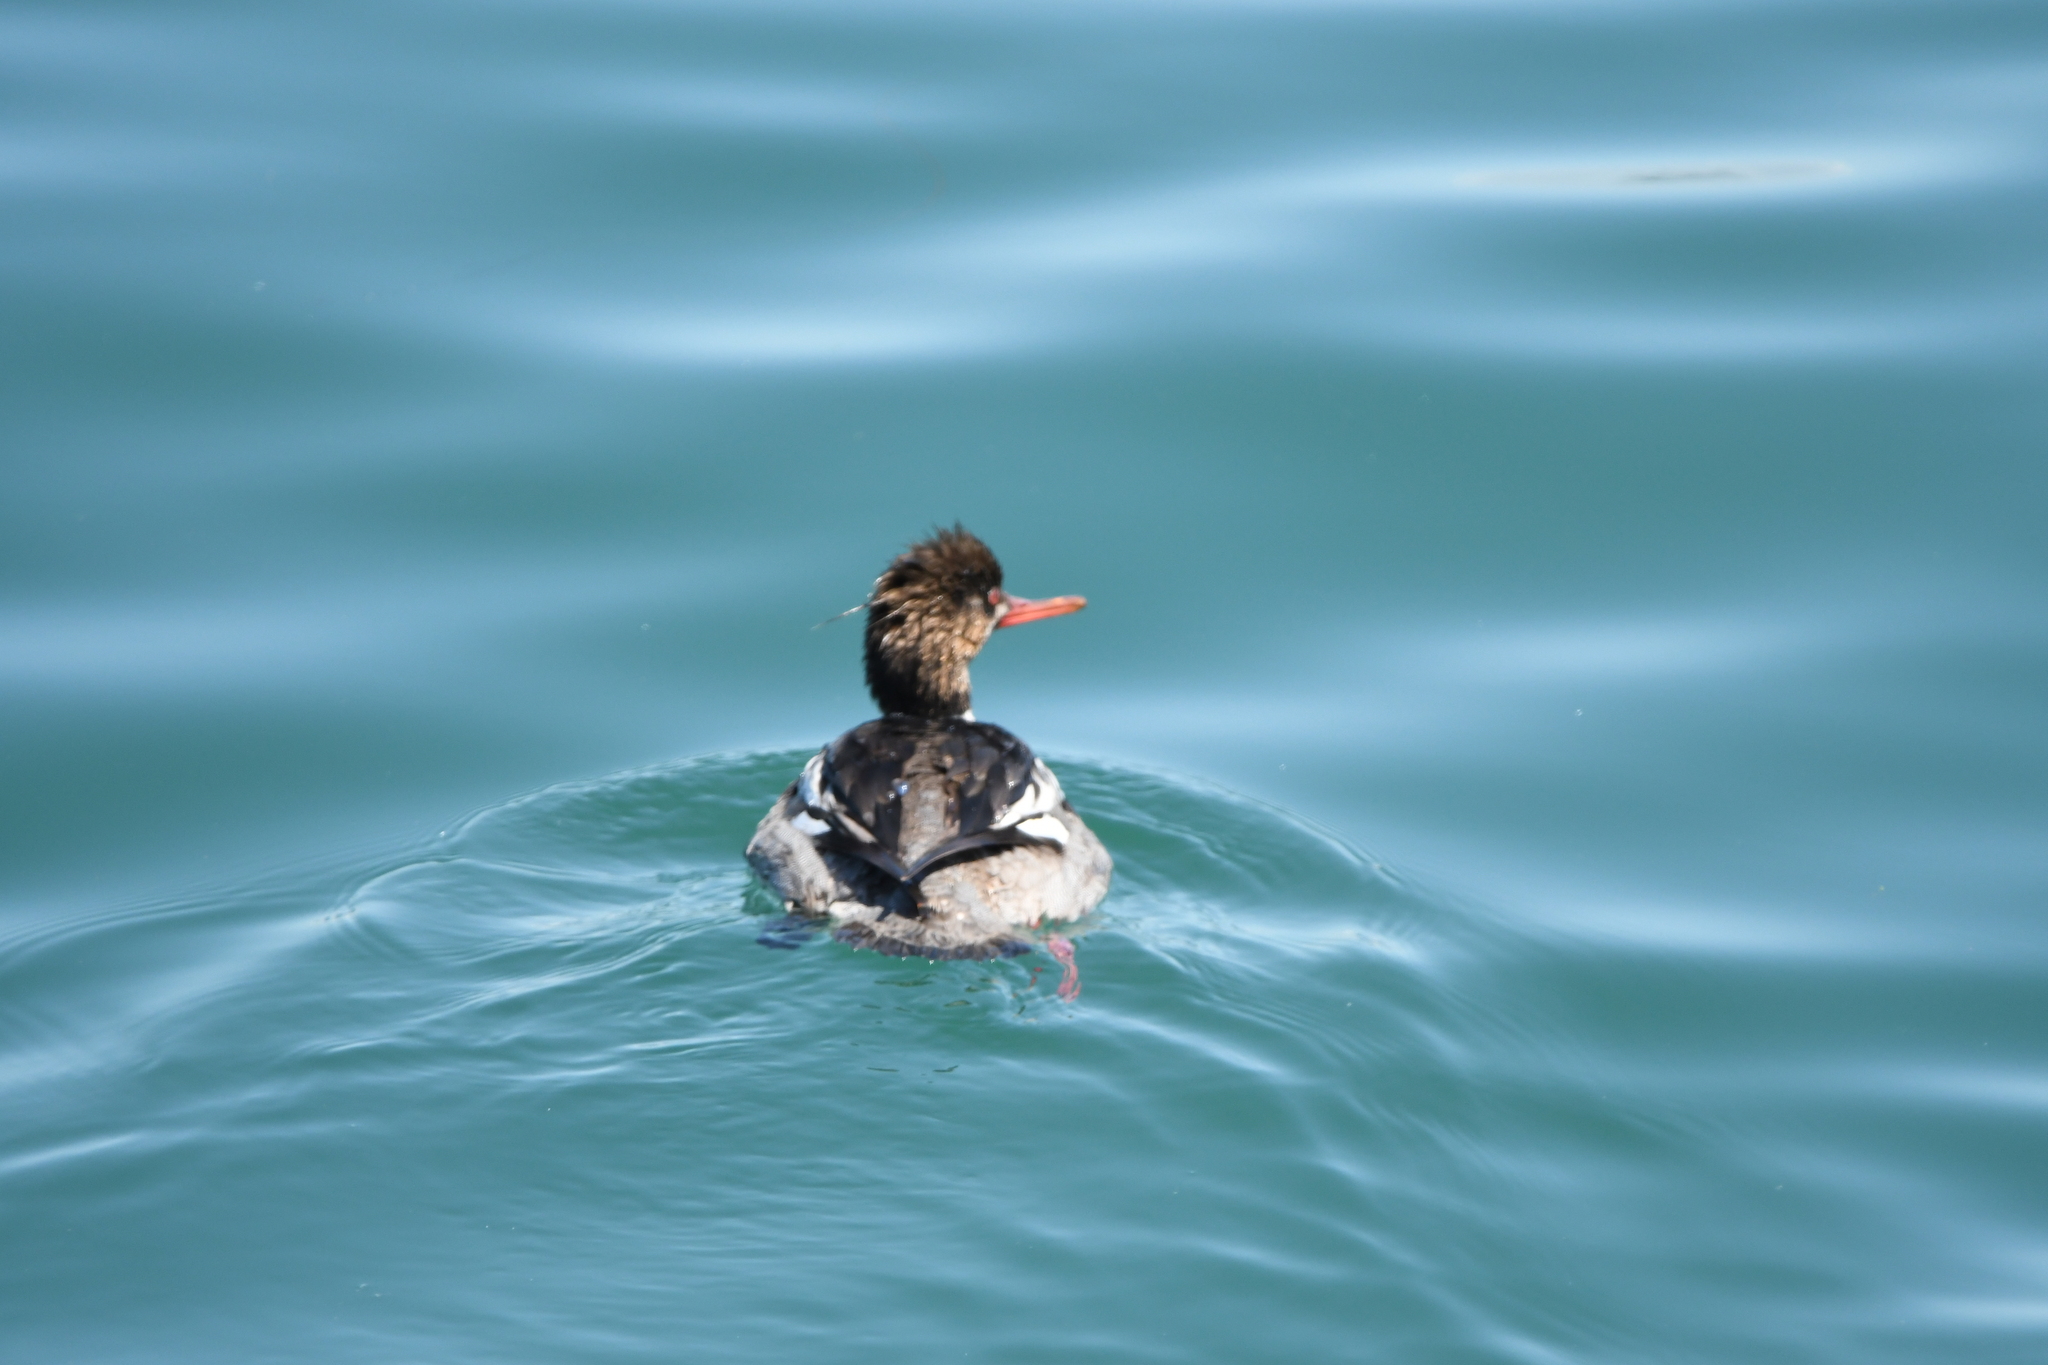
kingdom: Animalia
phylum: Chordata
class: Aves
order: Anseriformes
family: Anatidae
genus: Mergus
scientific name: Mergus serrator
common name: Red-breasted merganser
